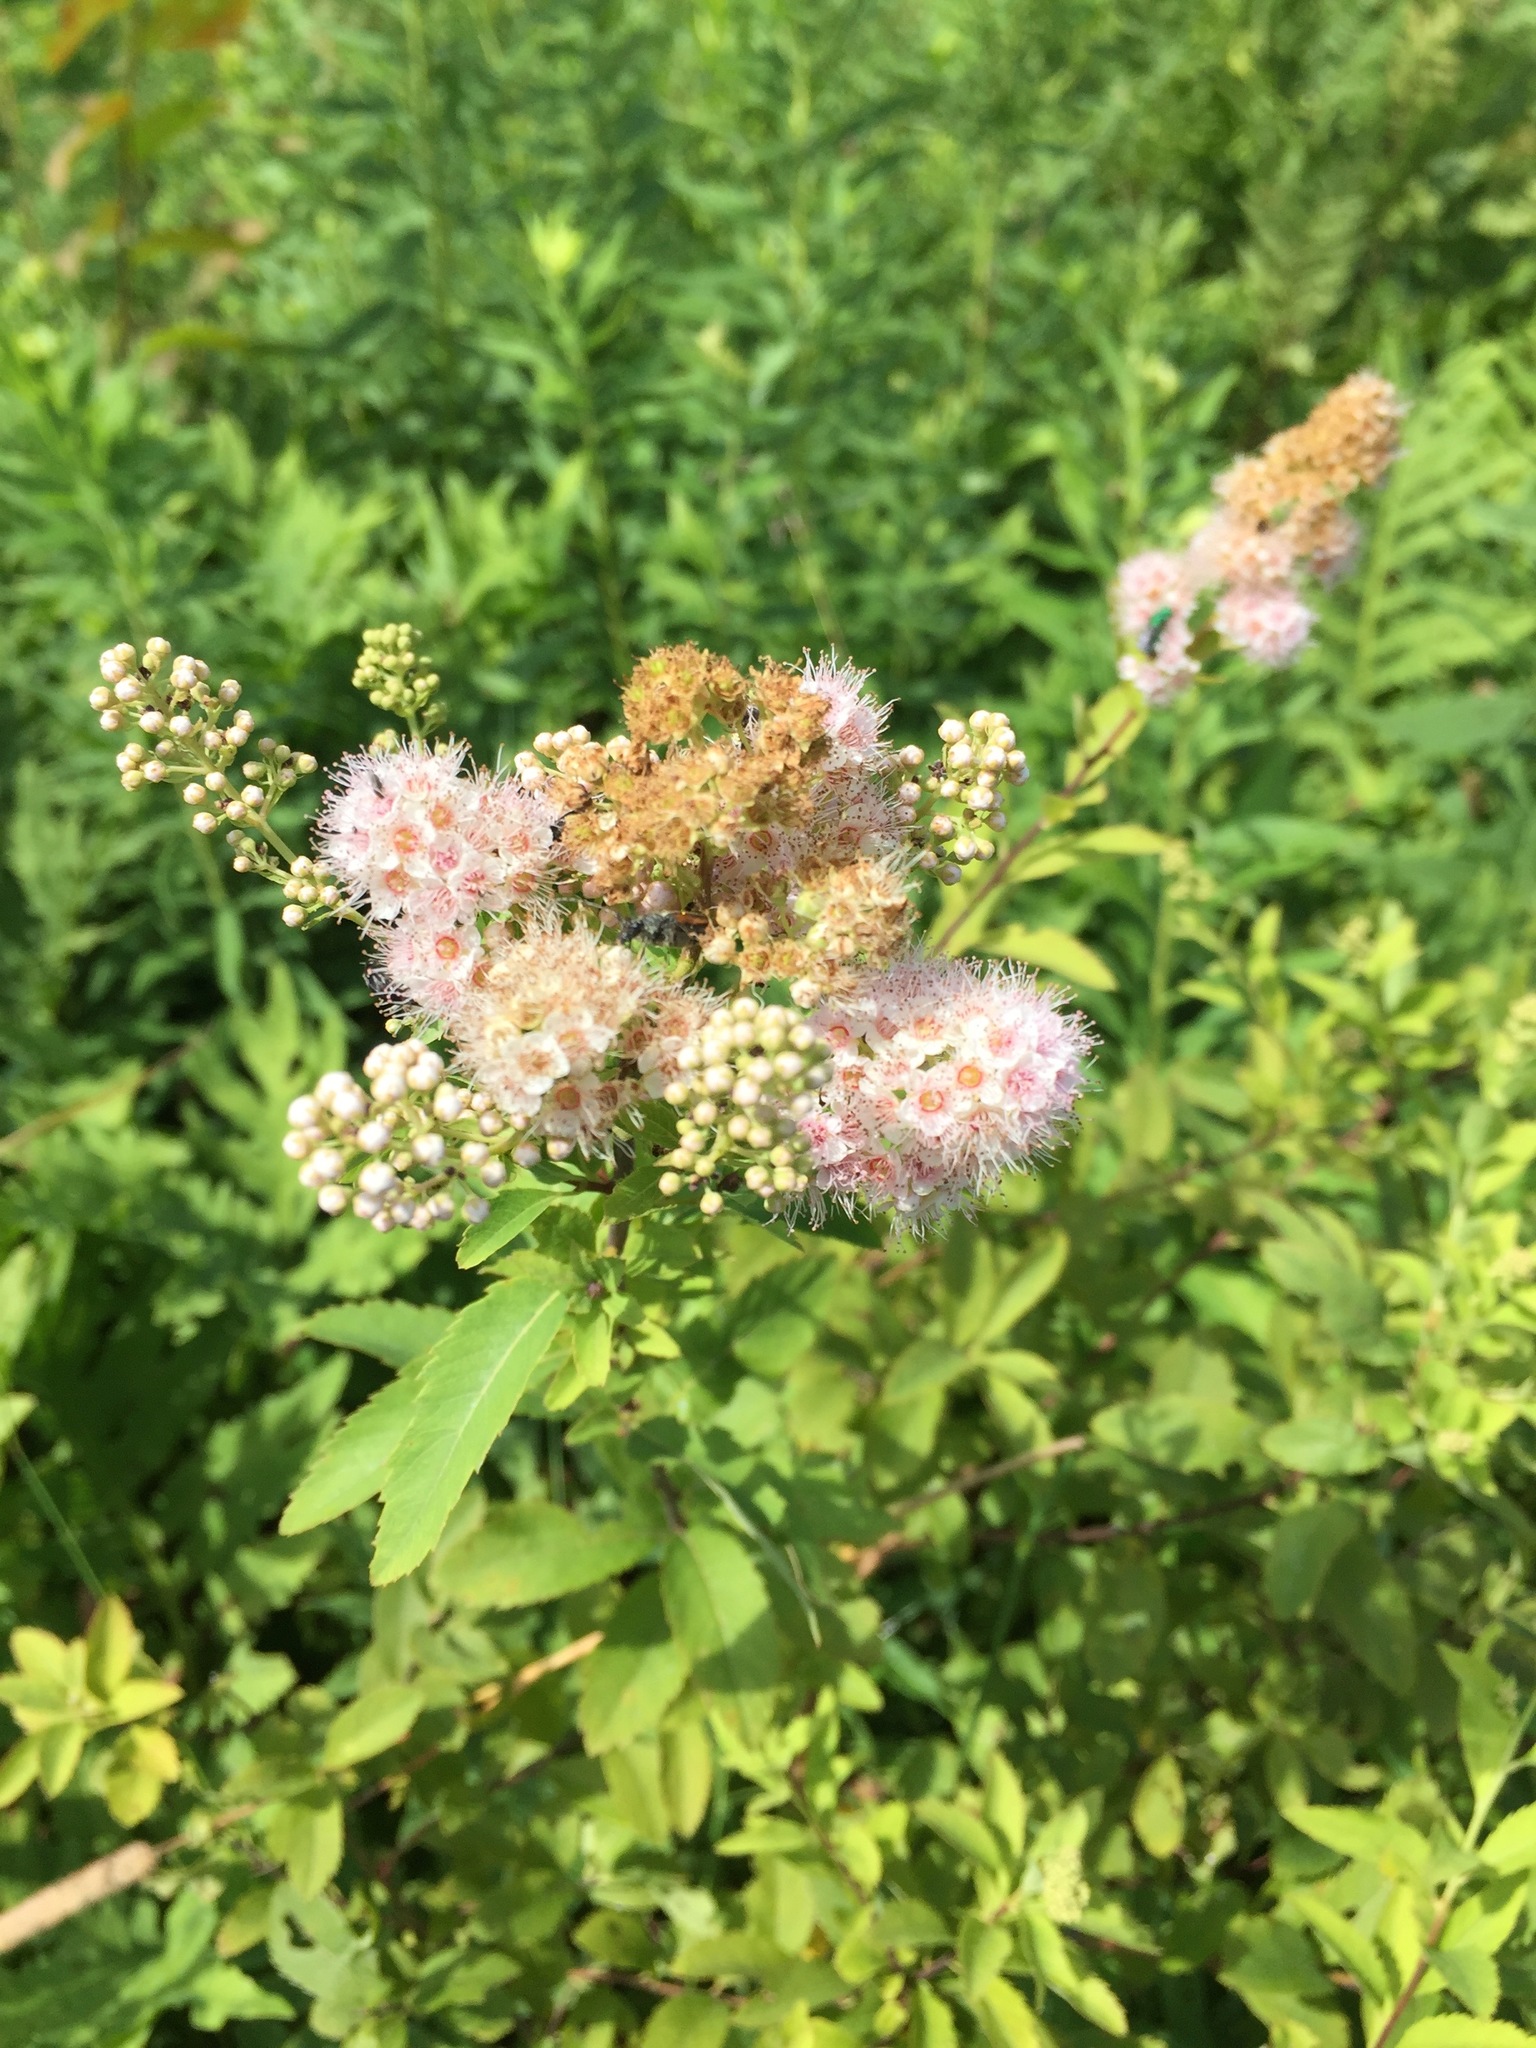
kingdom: Plantae
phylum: Tracheophyta
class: Magnoliopsida
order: Rosales
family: Rosaceae
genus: Spiraea
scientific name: Spiraea alba
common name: Pale bridewort
